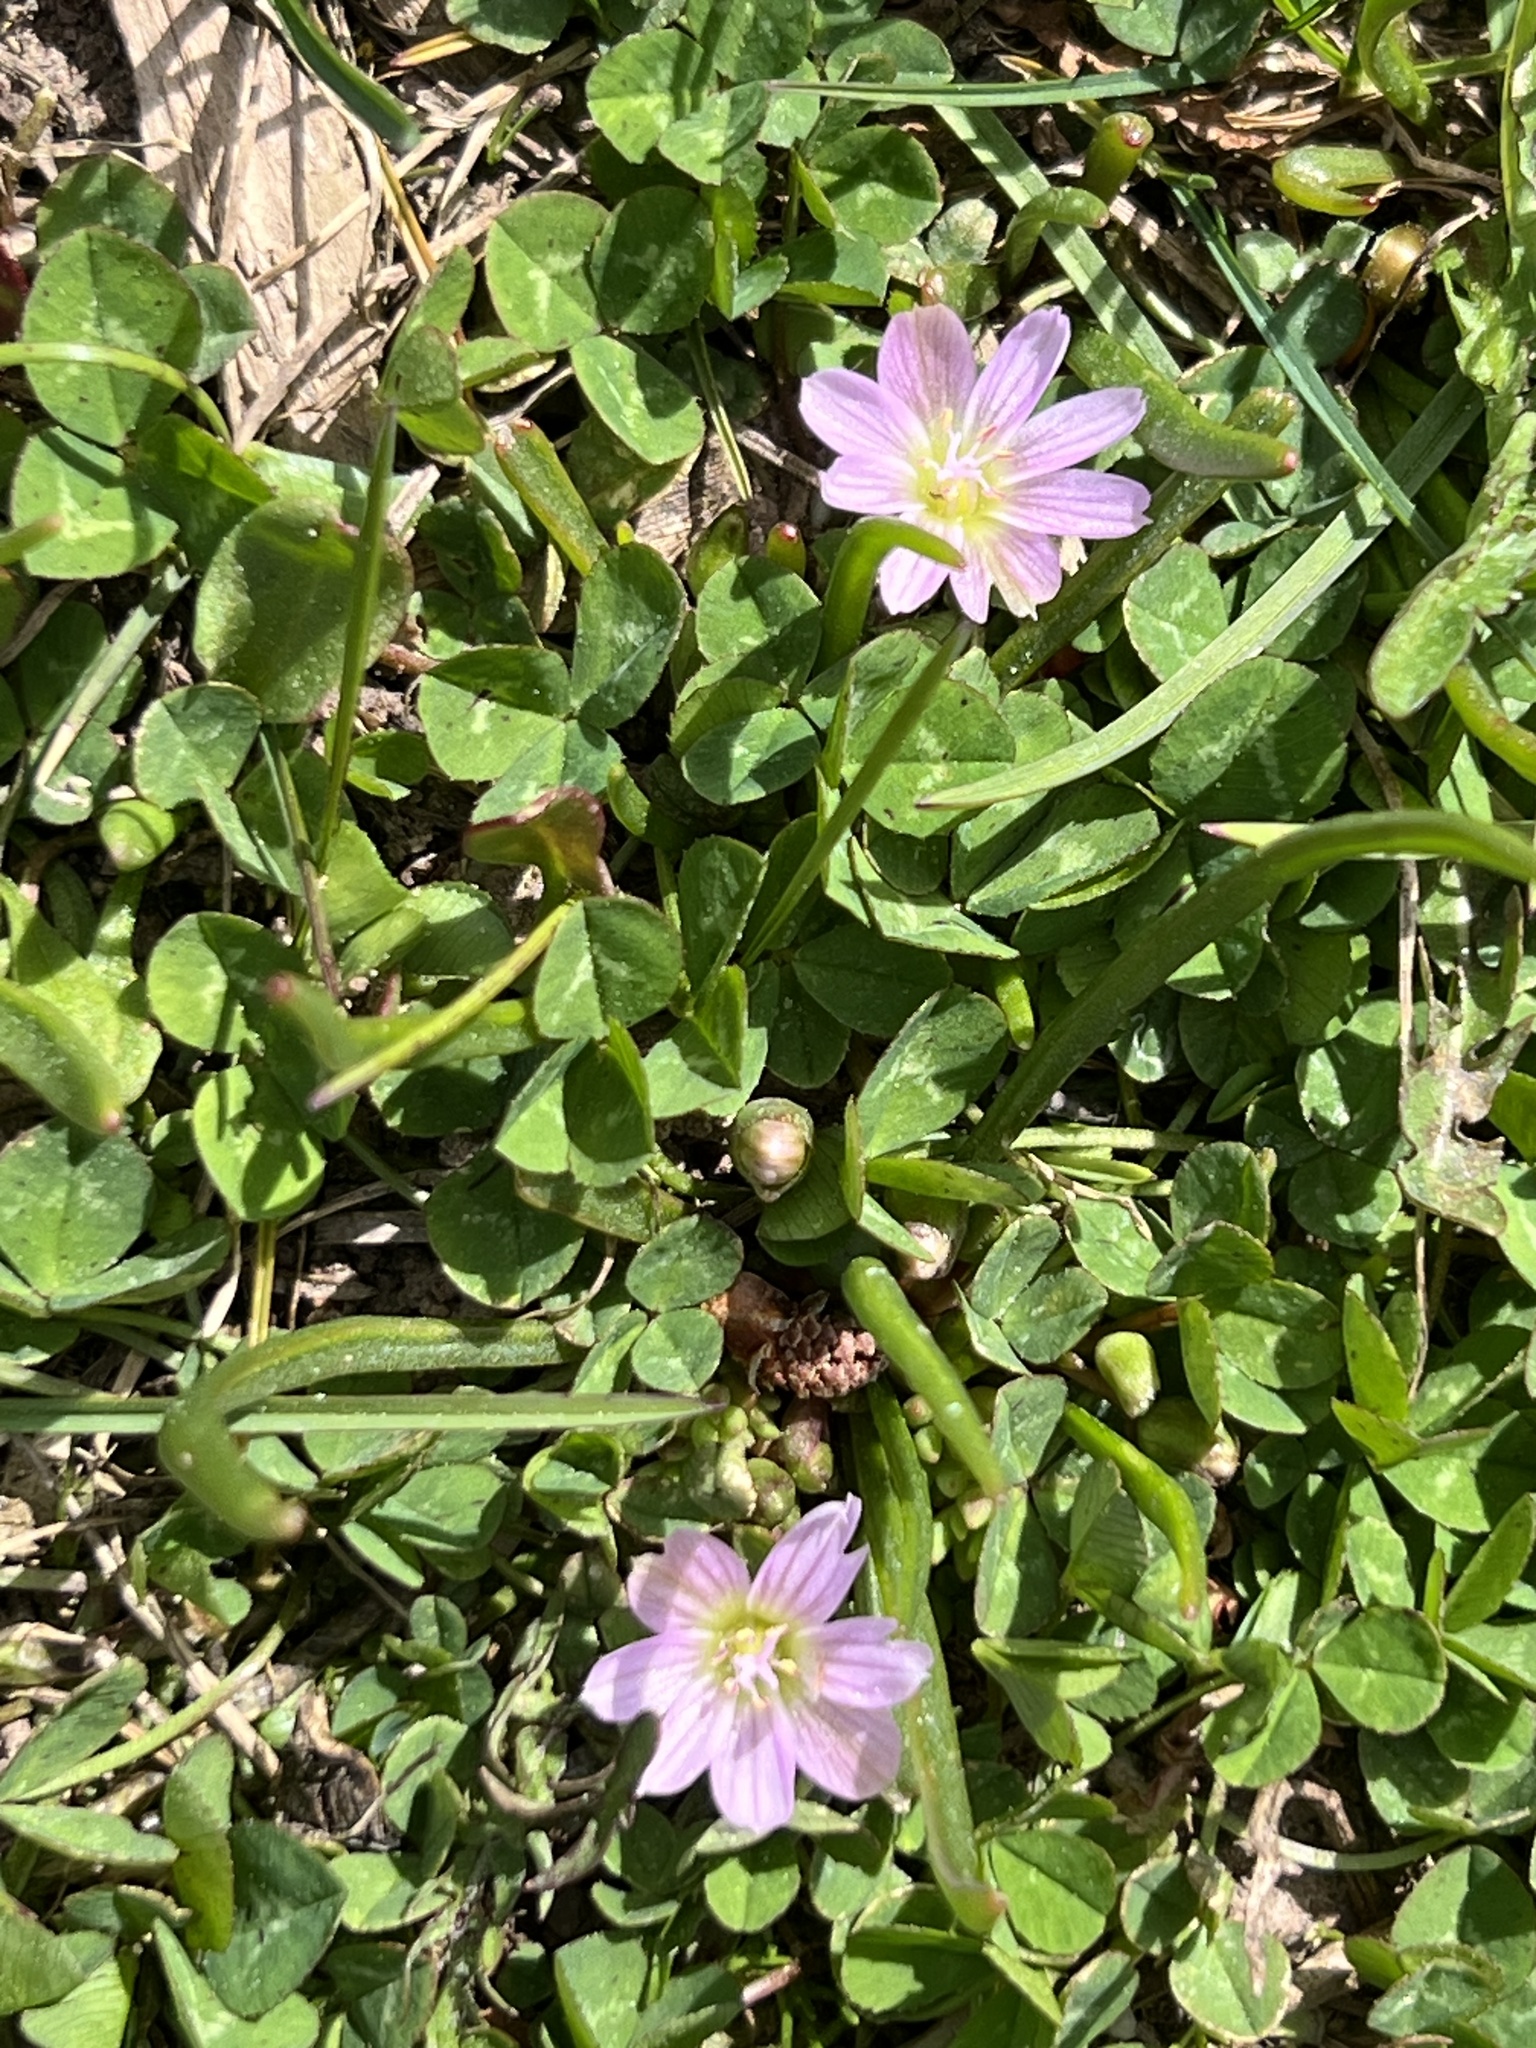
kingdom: Plantae
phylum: Tracheophyta
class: Magnoliopsida
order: Caryophyllales
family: Montiaceae
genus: Lewisia
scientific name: Lewisia pygmaea
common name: Alpine bitterroot
